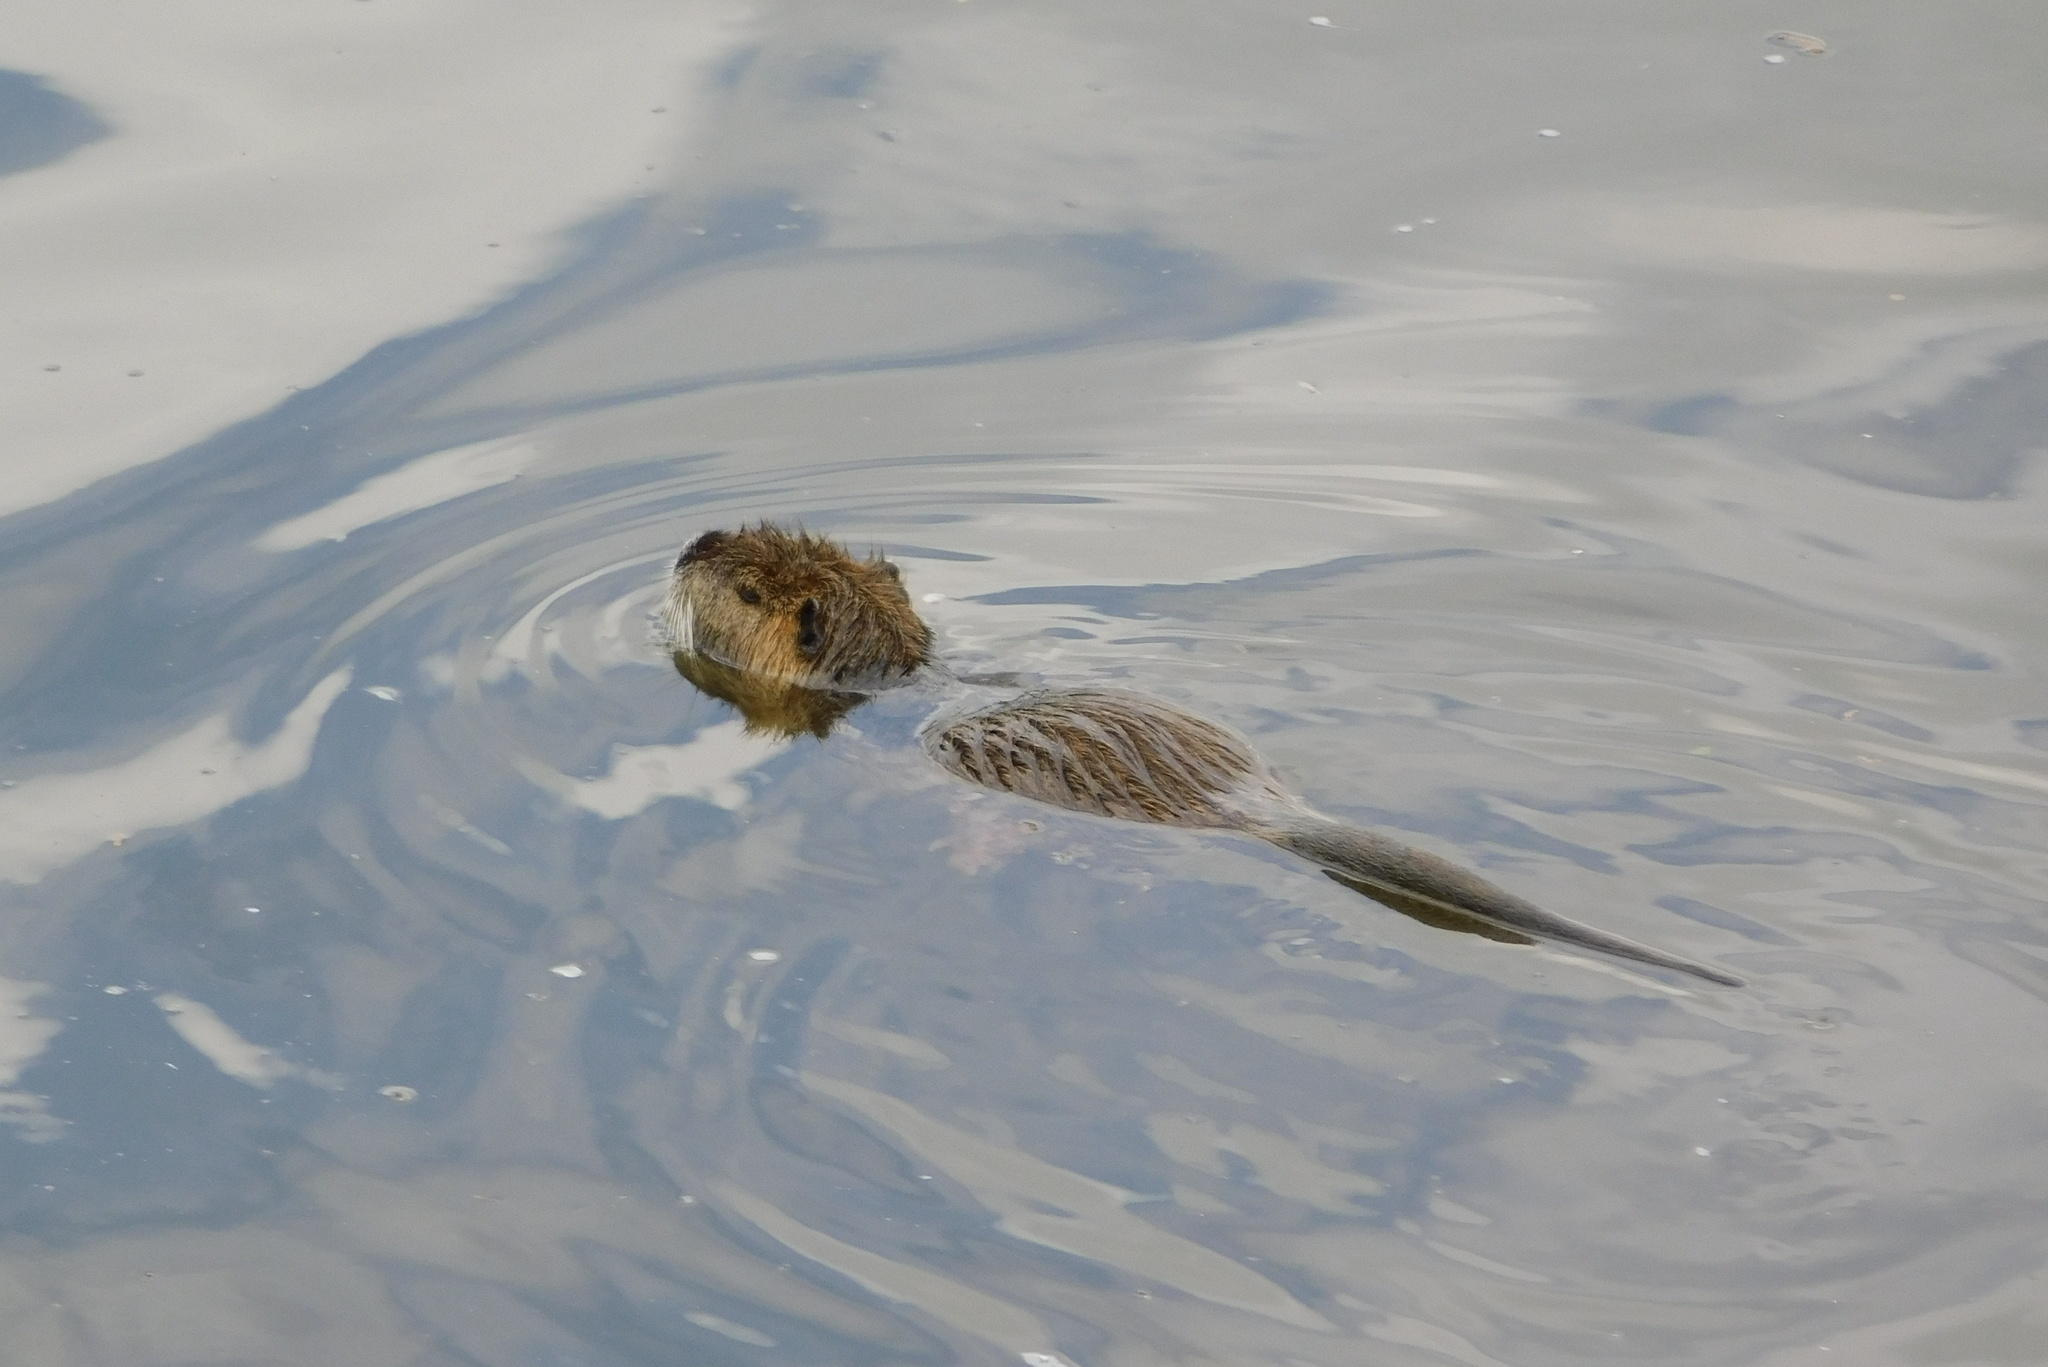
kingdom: Animalia
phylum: Chordata
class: Mammalia
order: Rodentia
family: Myocastoridae
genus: Myocastor
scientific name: Myocastor coypus
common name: Coypu
